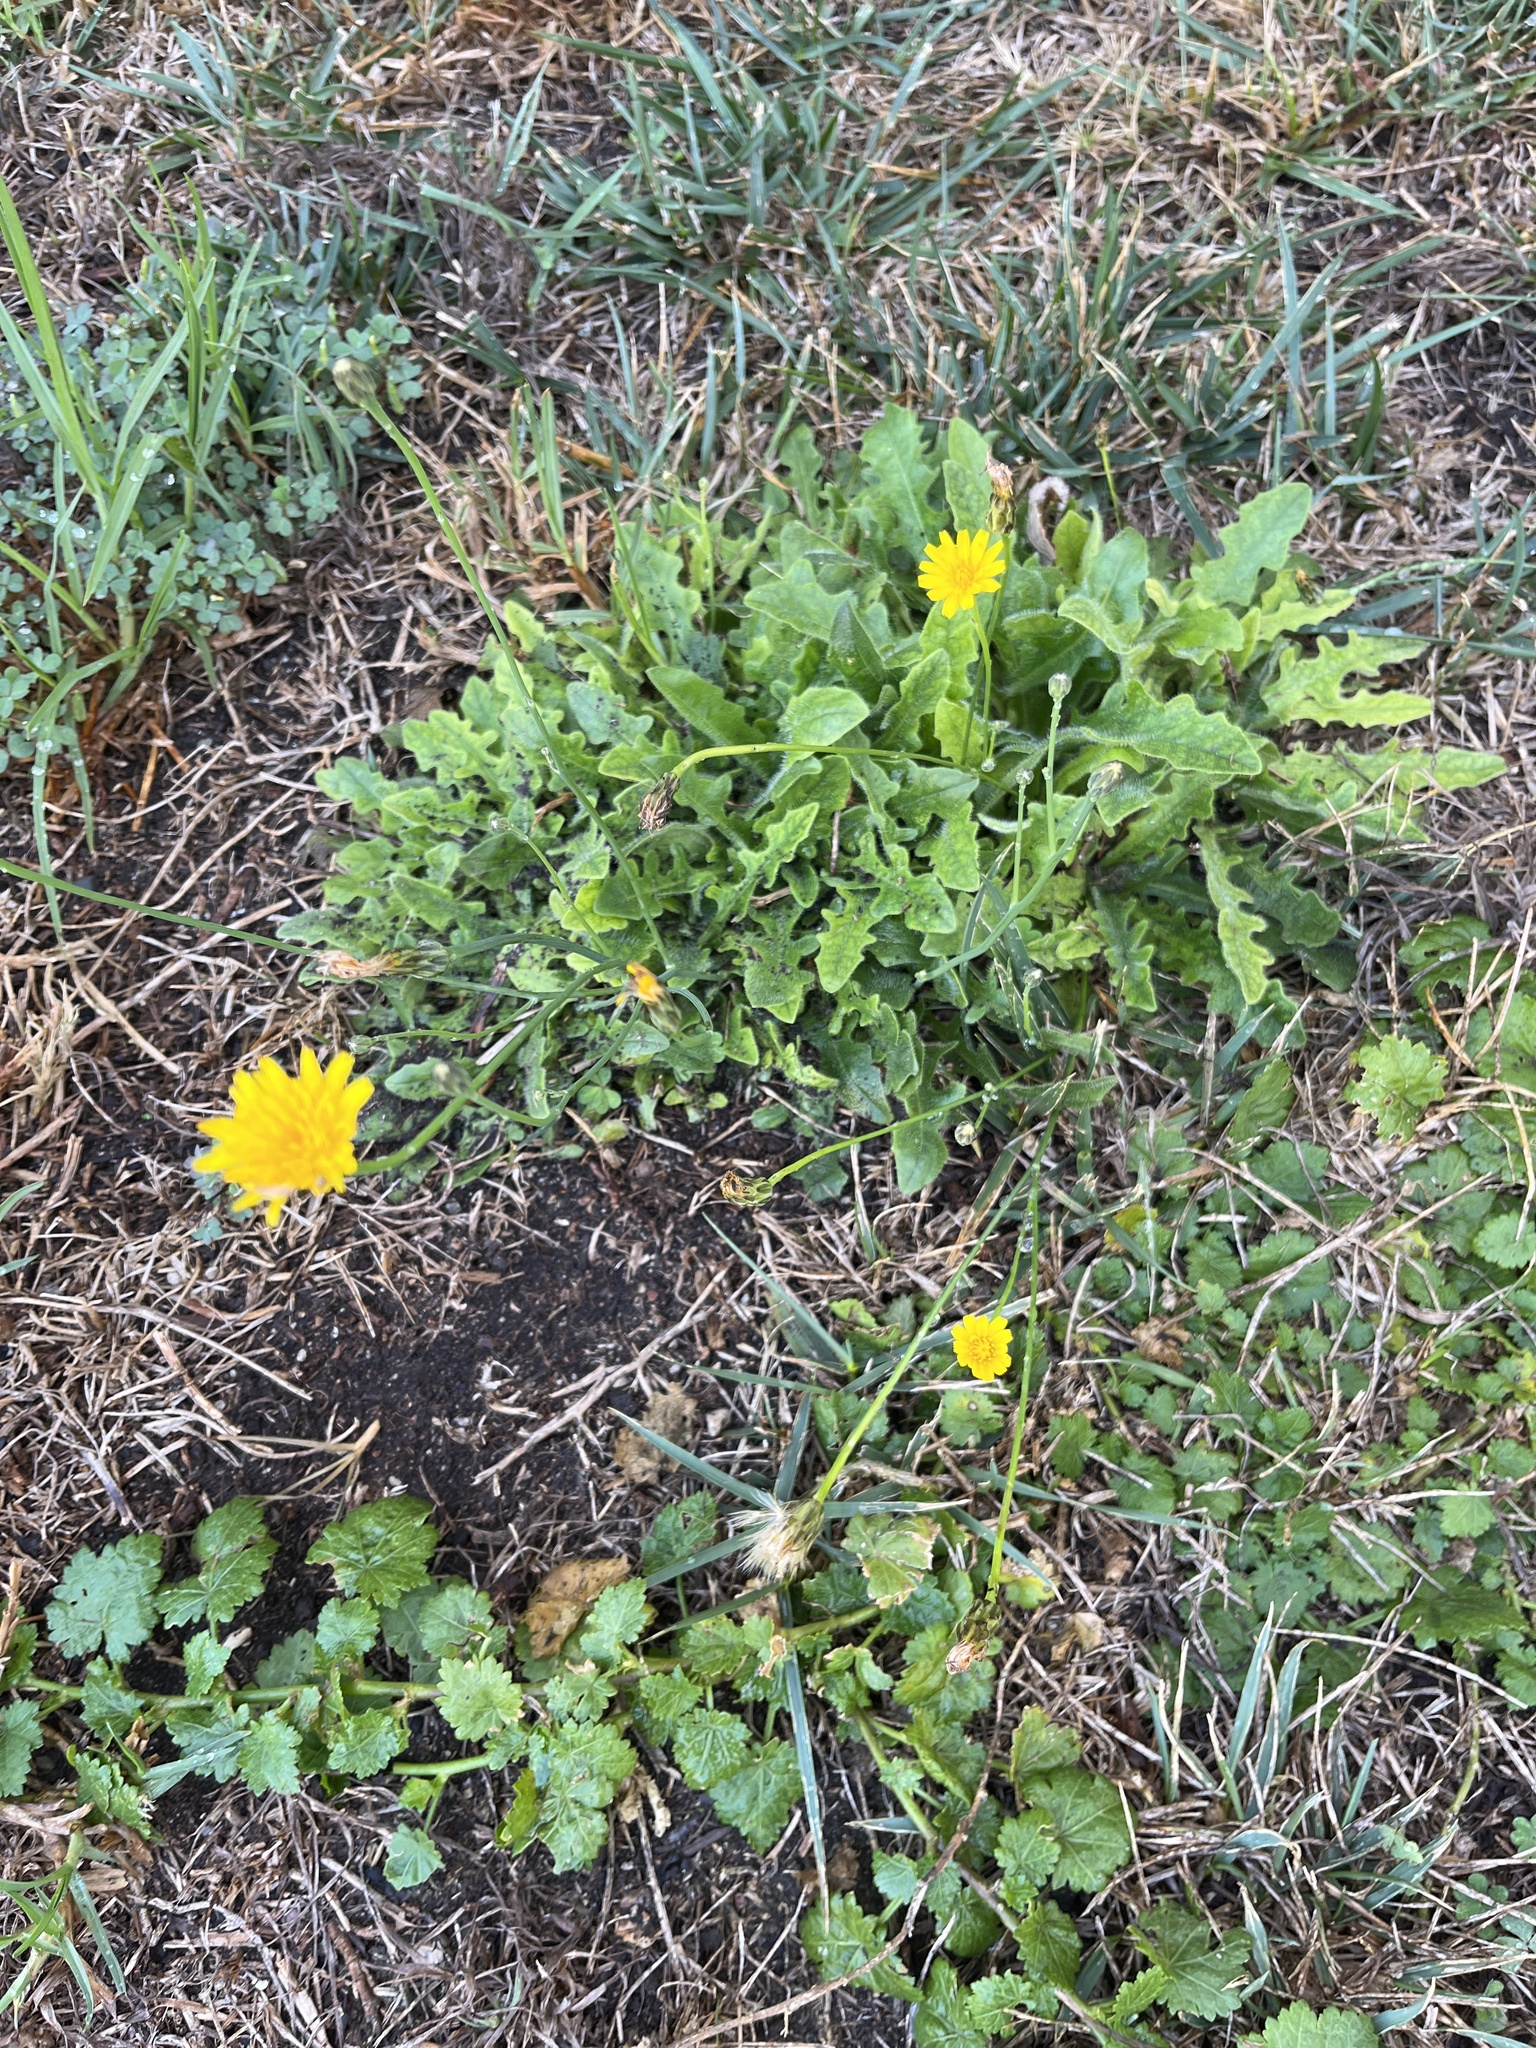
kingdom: Plantae
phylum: Tracheophyta
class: Magnoliopsida
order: Asterales
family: Asteraceae
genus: Hypochaeris
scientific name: Hypochaeris radicata
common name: Flatweed
